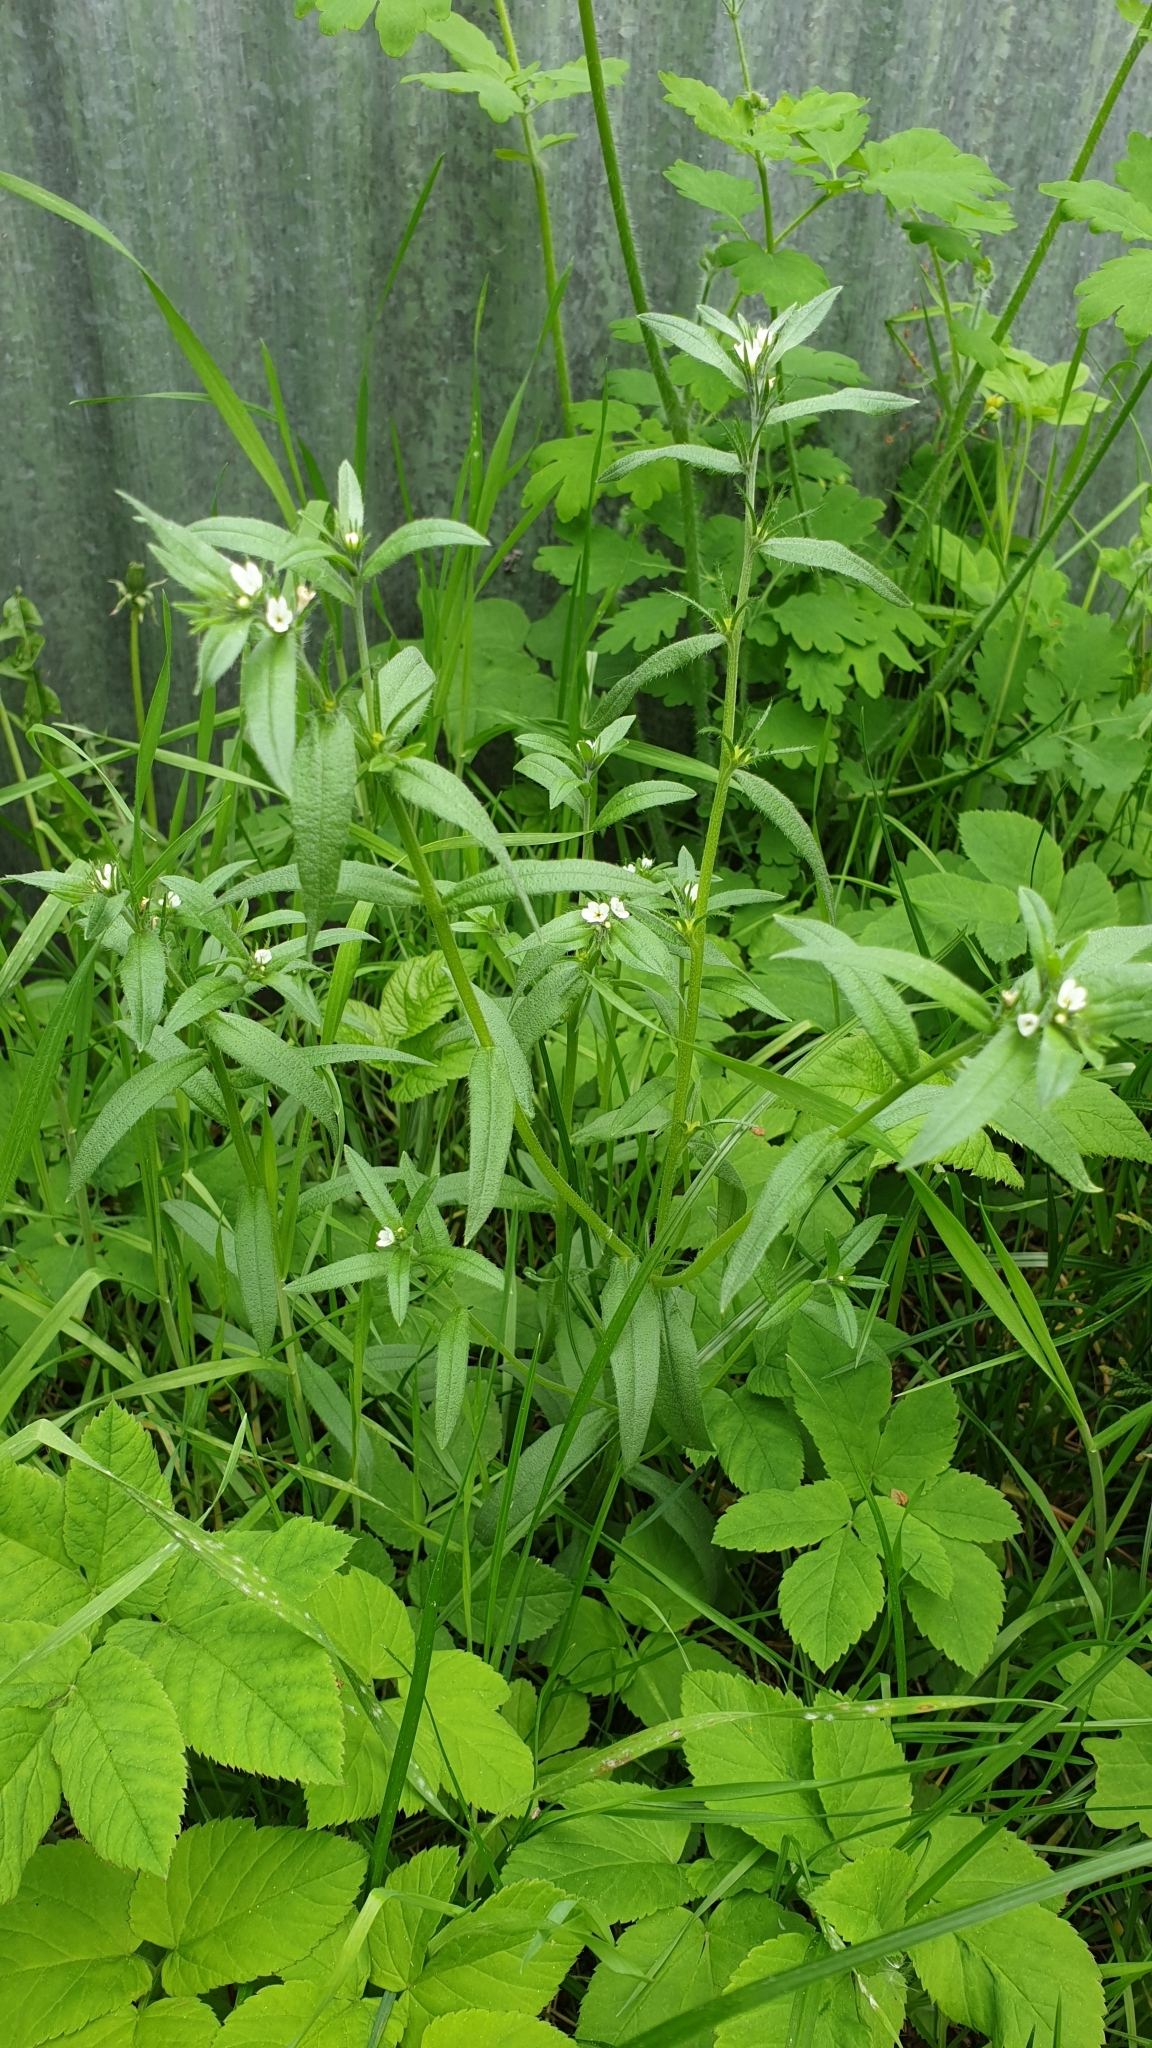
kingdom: Plantae
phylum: Tracheophyta
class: Magnoliopsida
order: Boraginales
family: Boraginaceae
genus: Buglossoides
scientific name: Buglossoides arvensis
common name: Corn gromwell
